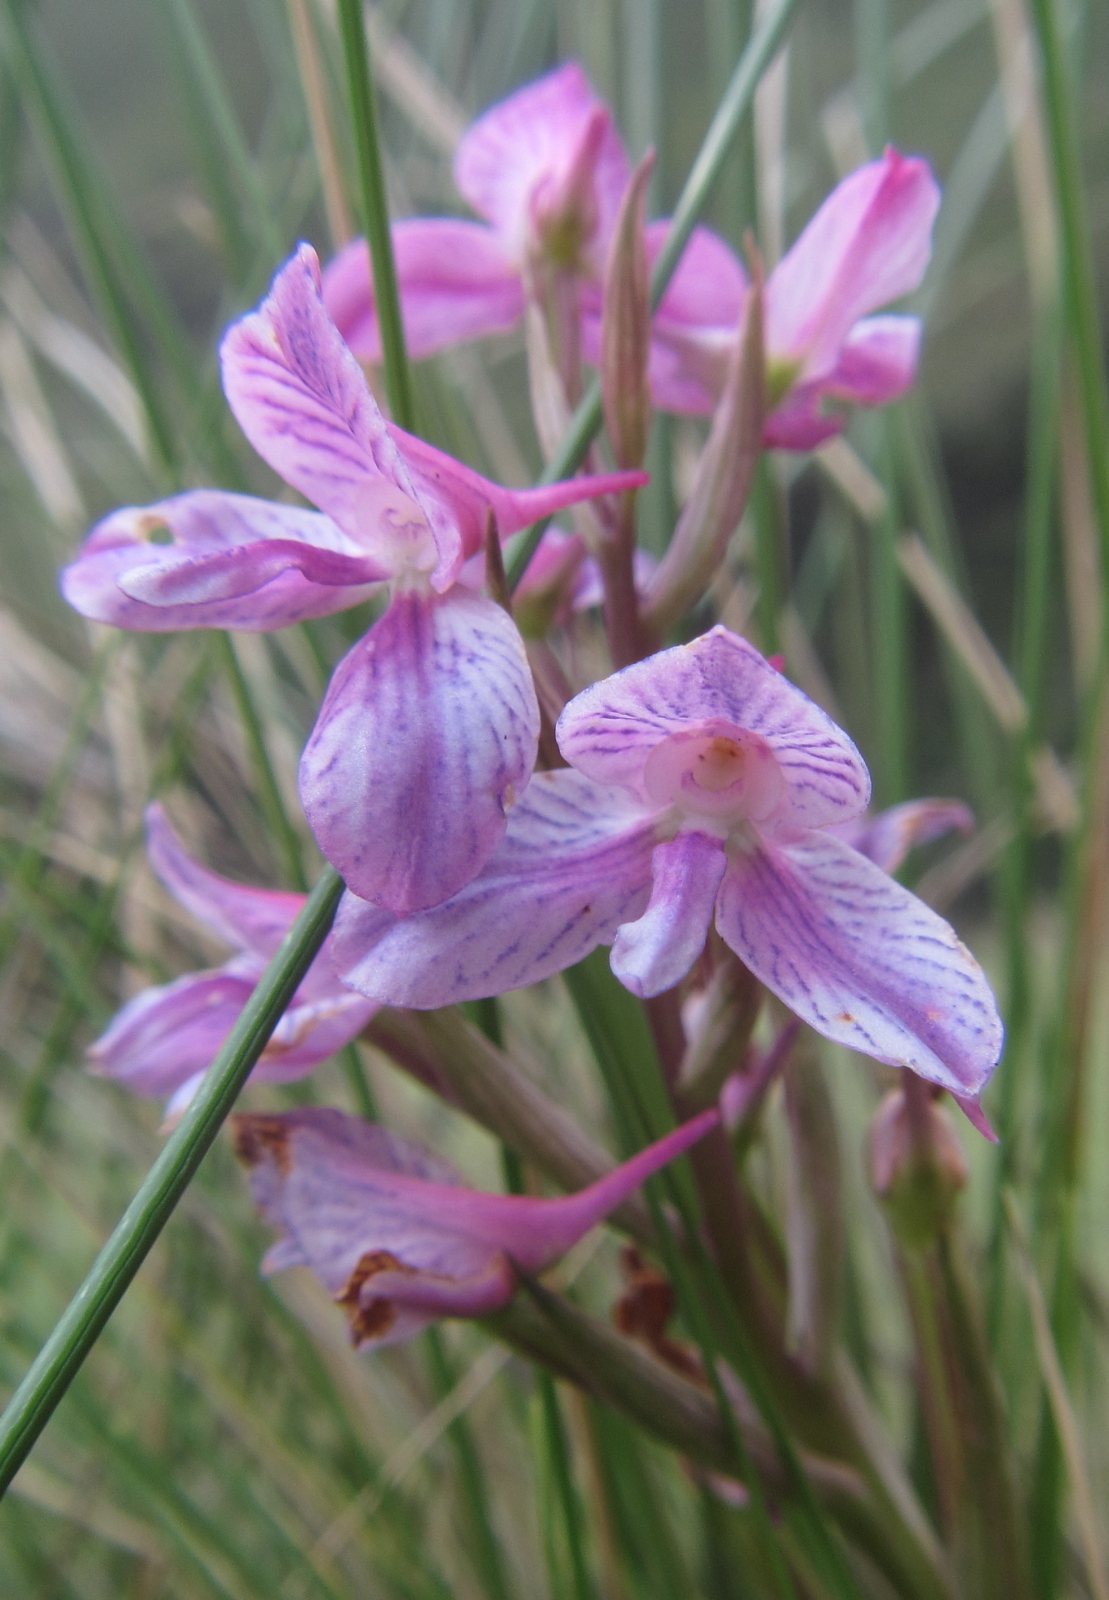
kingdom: Plantae
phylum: Tracheophyta
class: Liliopsida
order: Asparagales
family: Orchidaceae
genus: Disa
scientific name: Disa dracomontana
